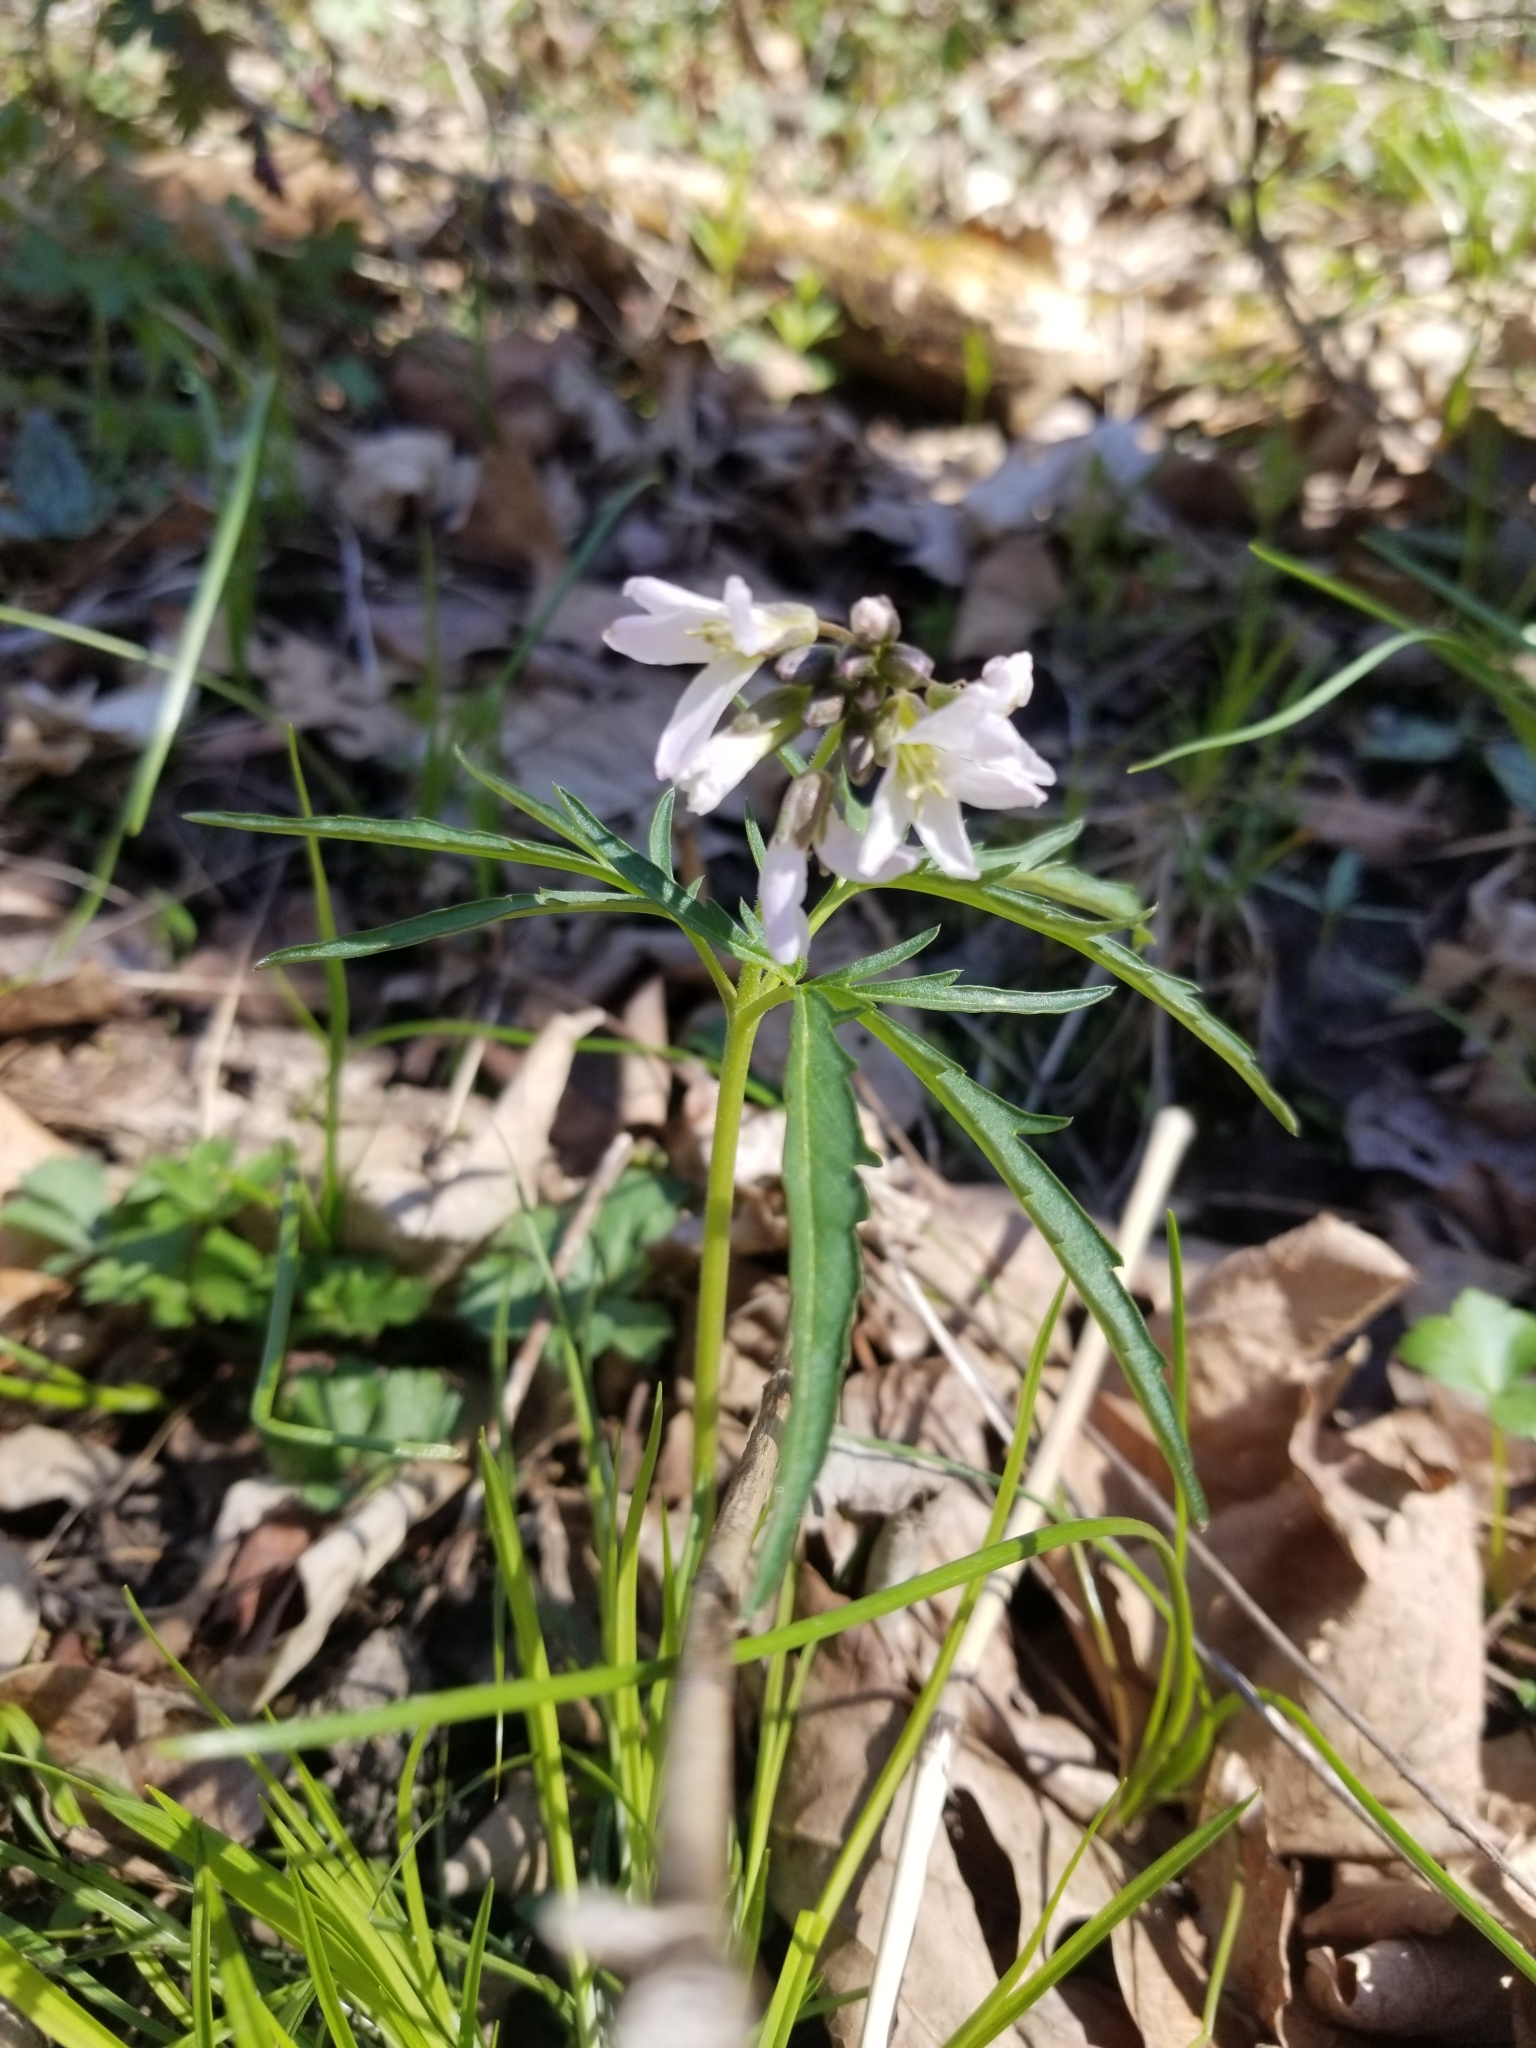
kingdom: Plantae
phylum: Tracheophyta
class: Magnoliopsida
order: Brassicales
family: Brassicaceae
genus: Cardamine
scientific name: Cardamine concatenata
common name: Cut-leaf toothcup
